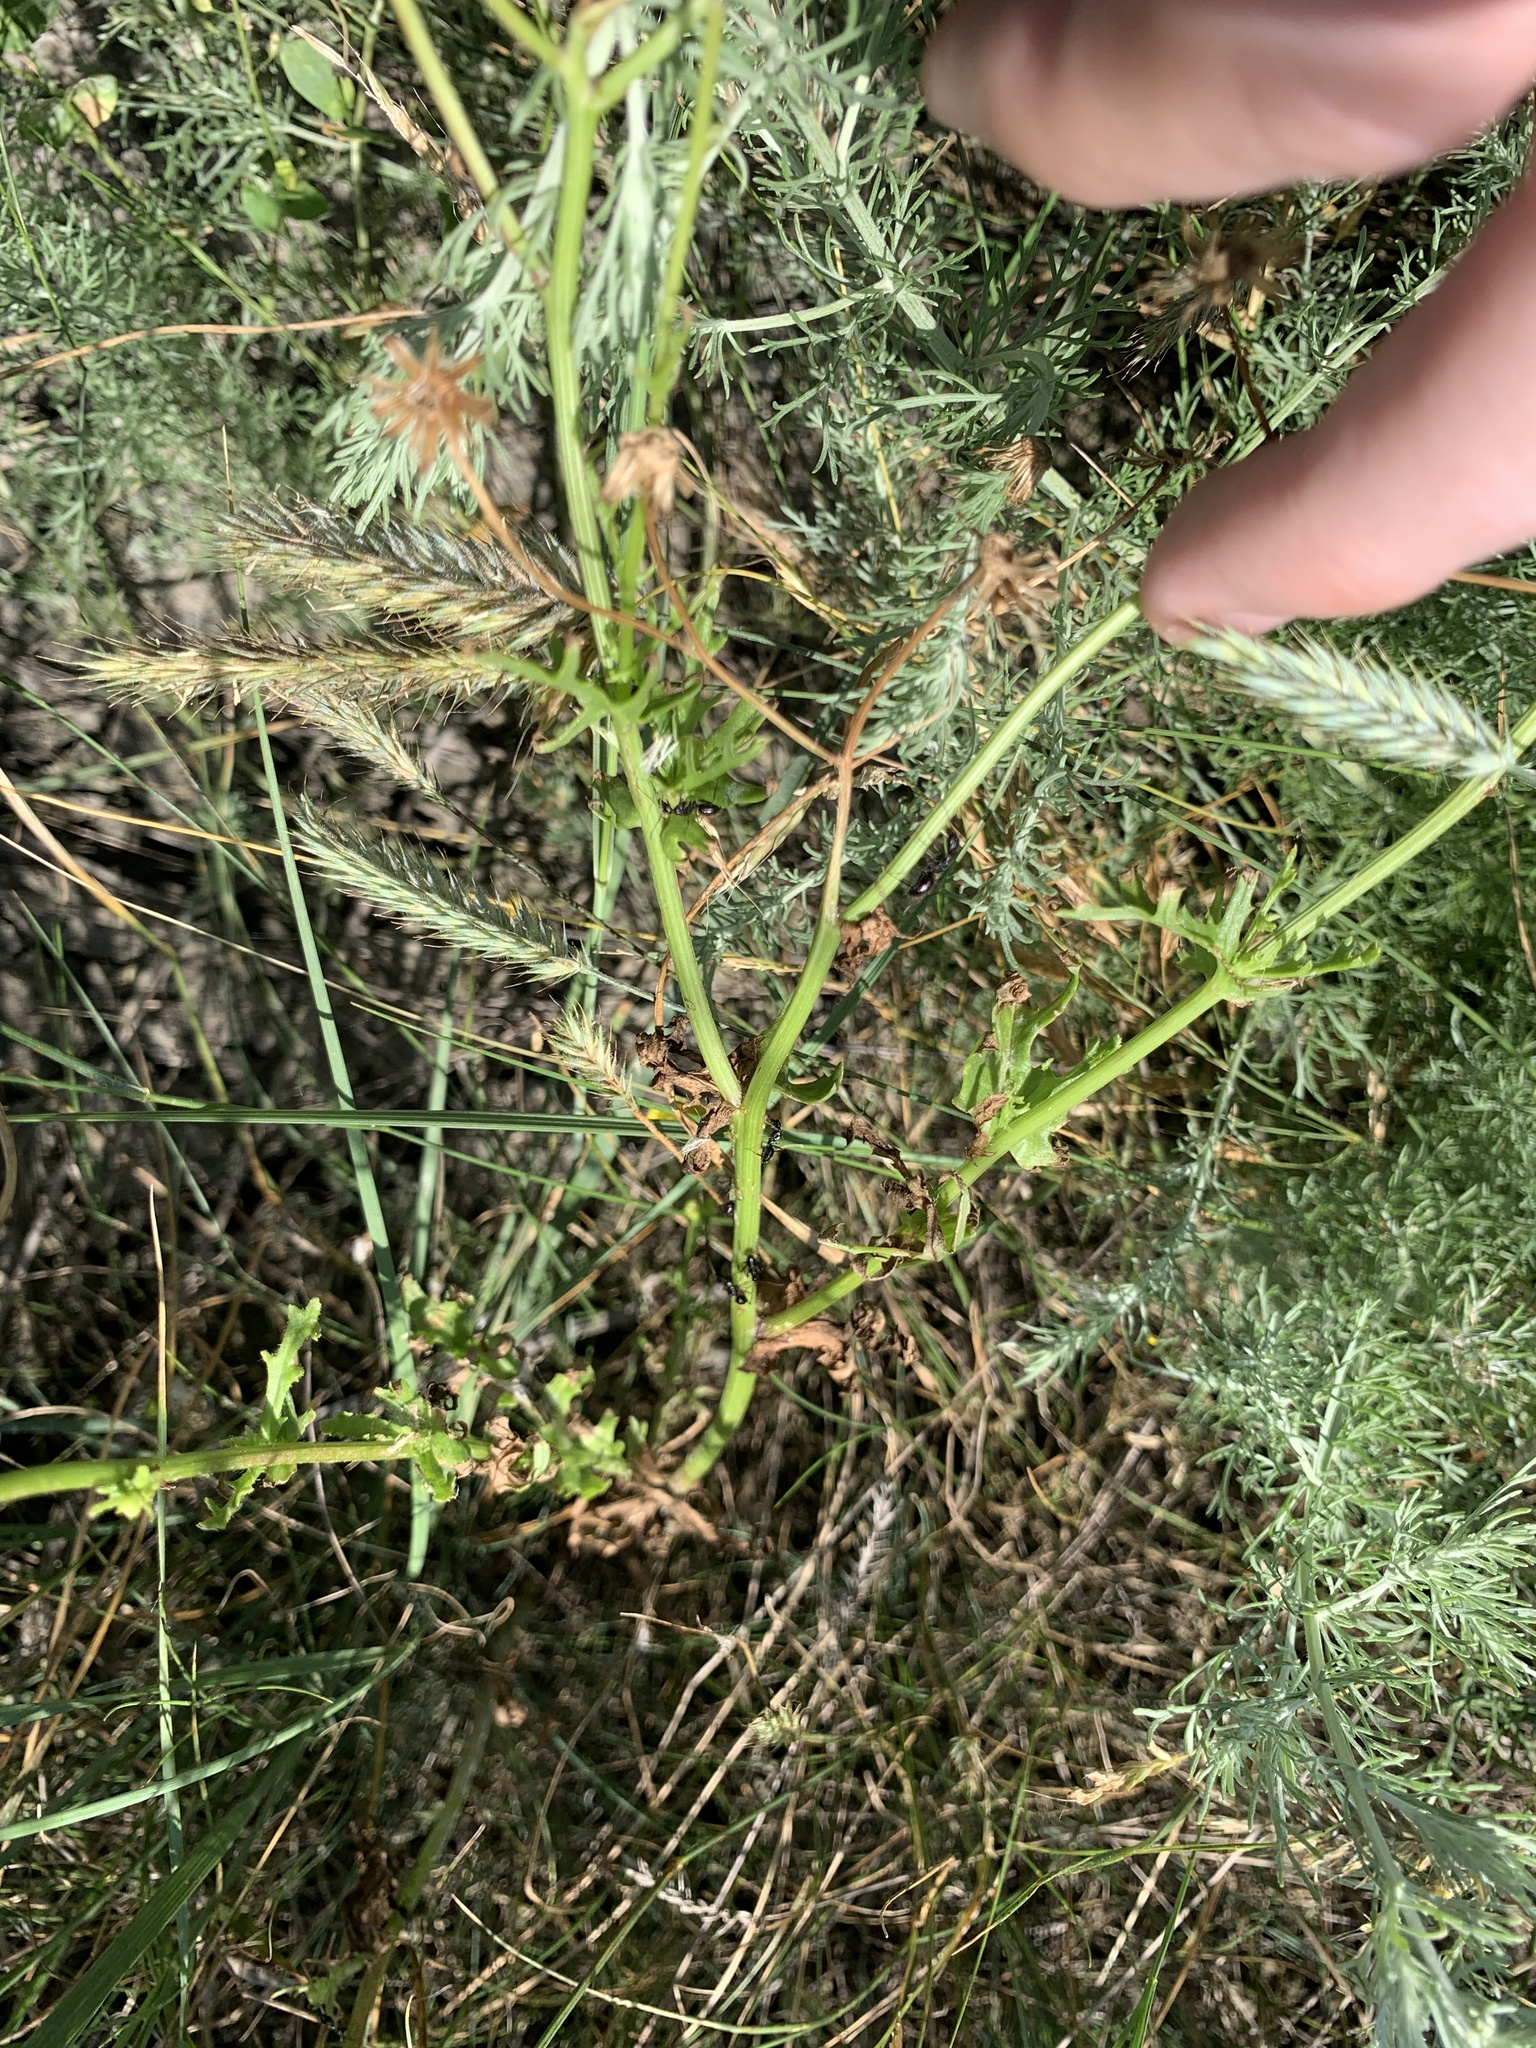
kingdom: Plantae
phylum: Tracheophyta
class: Magnoliopsida
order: Asterales
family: Asteraceae
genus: Senecio
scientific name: Senecio vernalis
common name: Eastern groundsel
